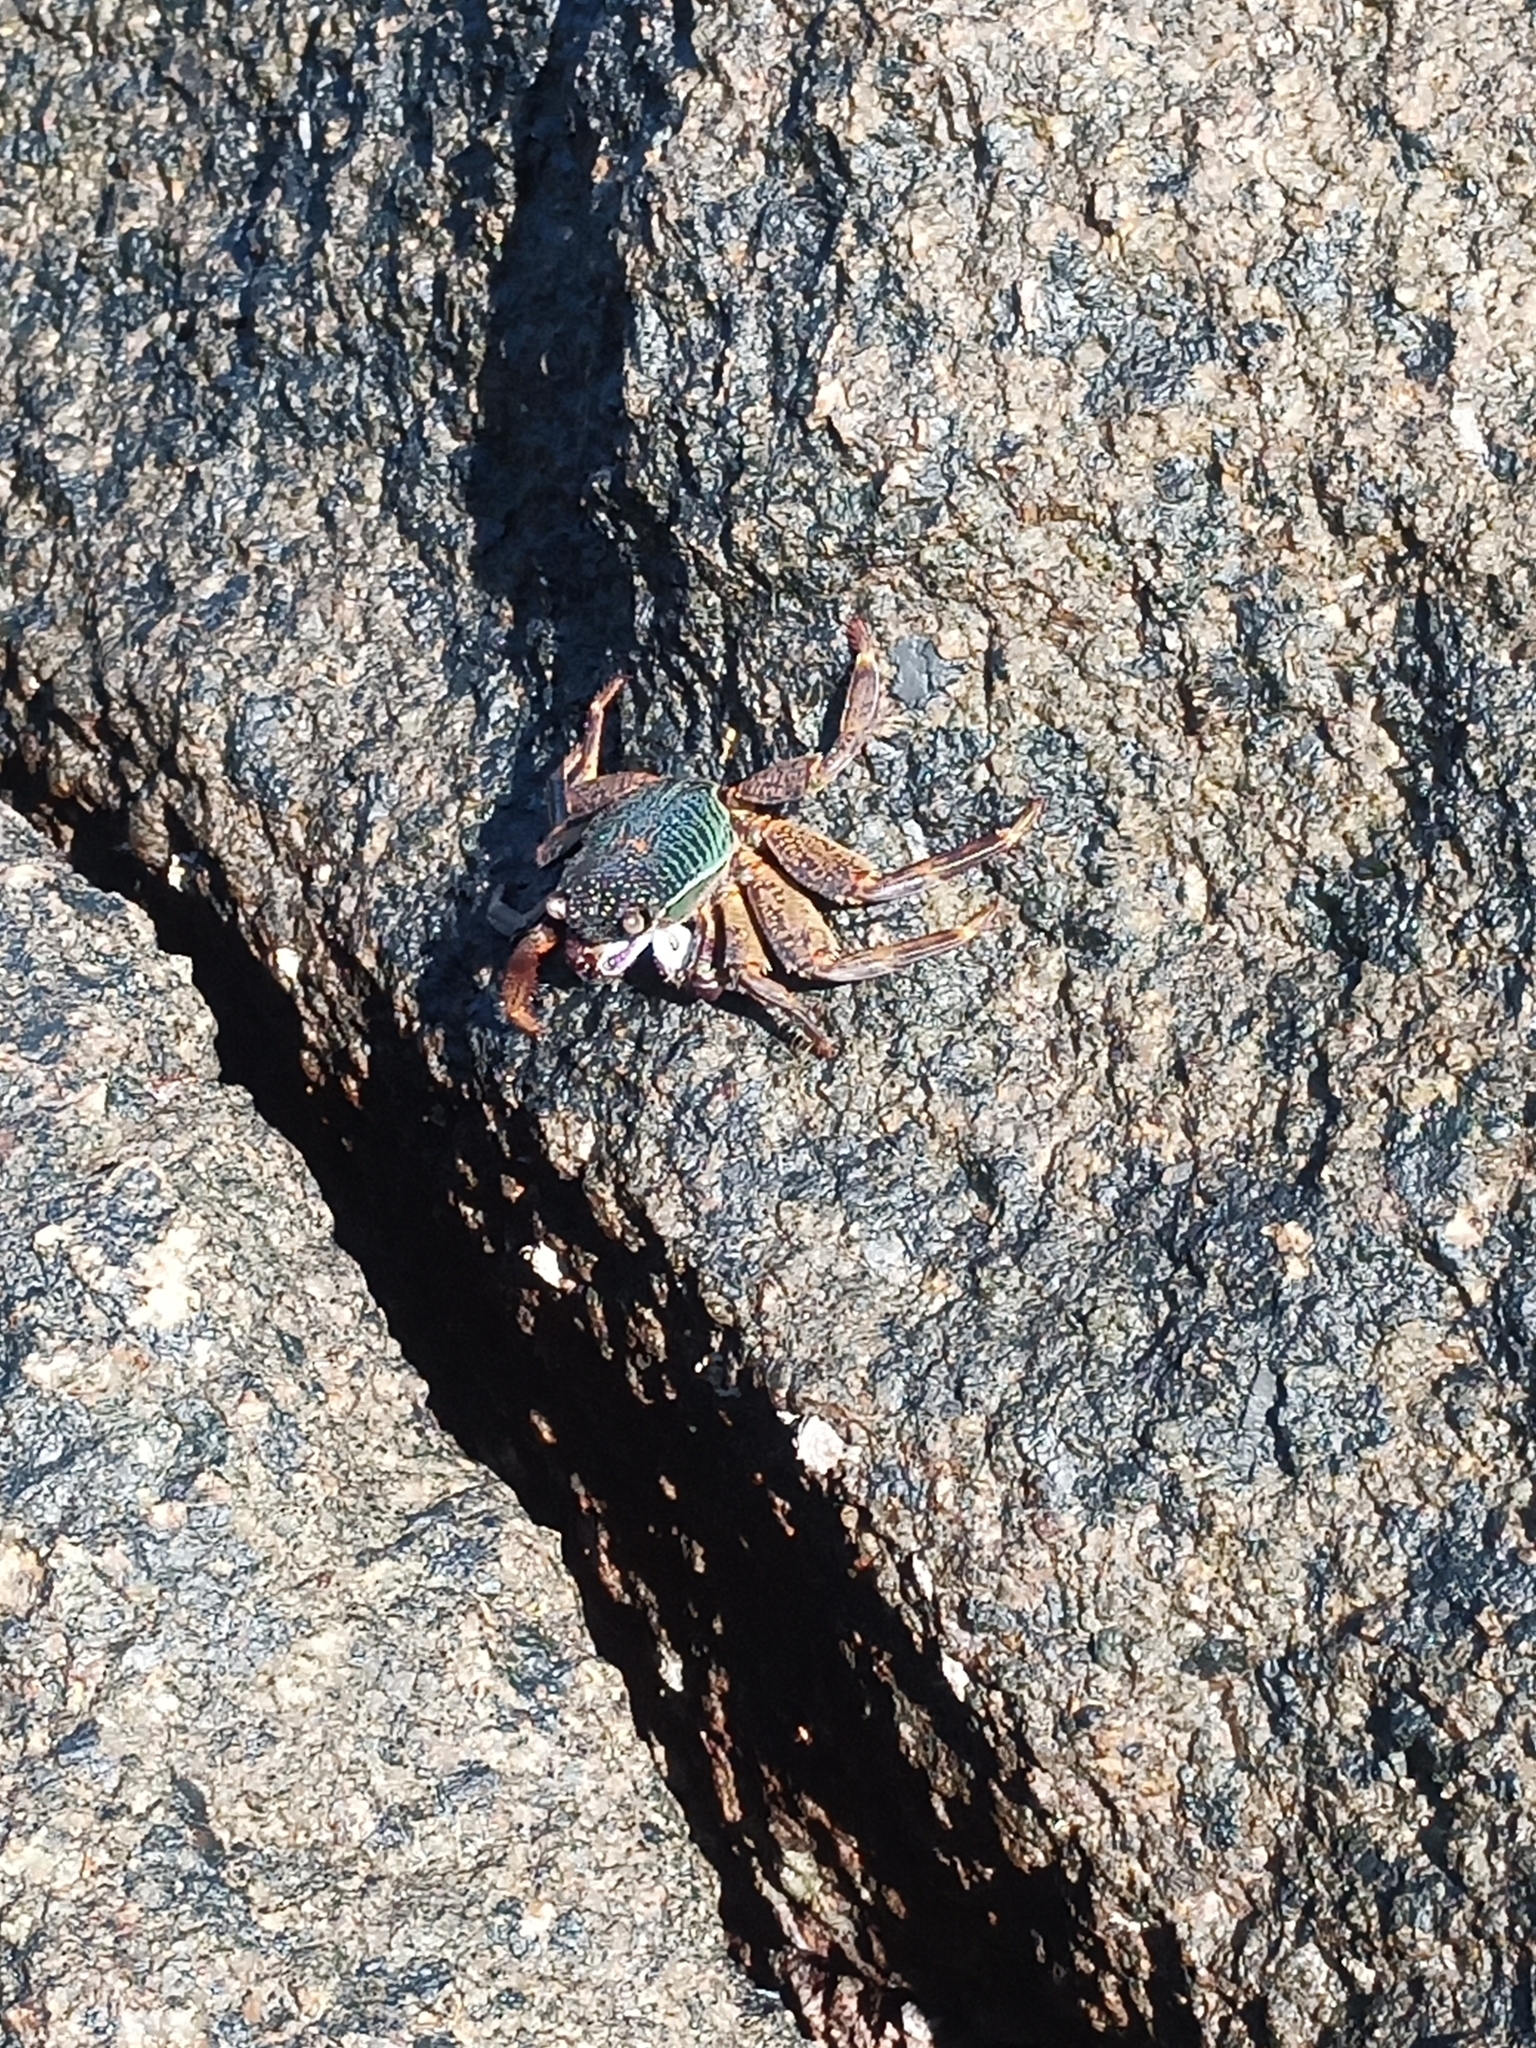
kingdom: Animalia
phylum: Arthropoda
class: Malacostraca
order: Decapoda
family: Grapsidae
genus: Grapsus
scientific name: Grapsus albolineatus
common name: Mottled lightfoot crab
